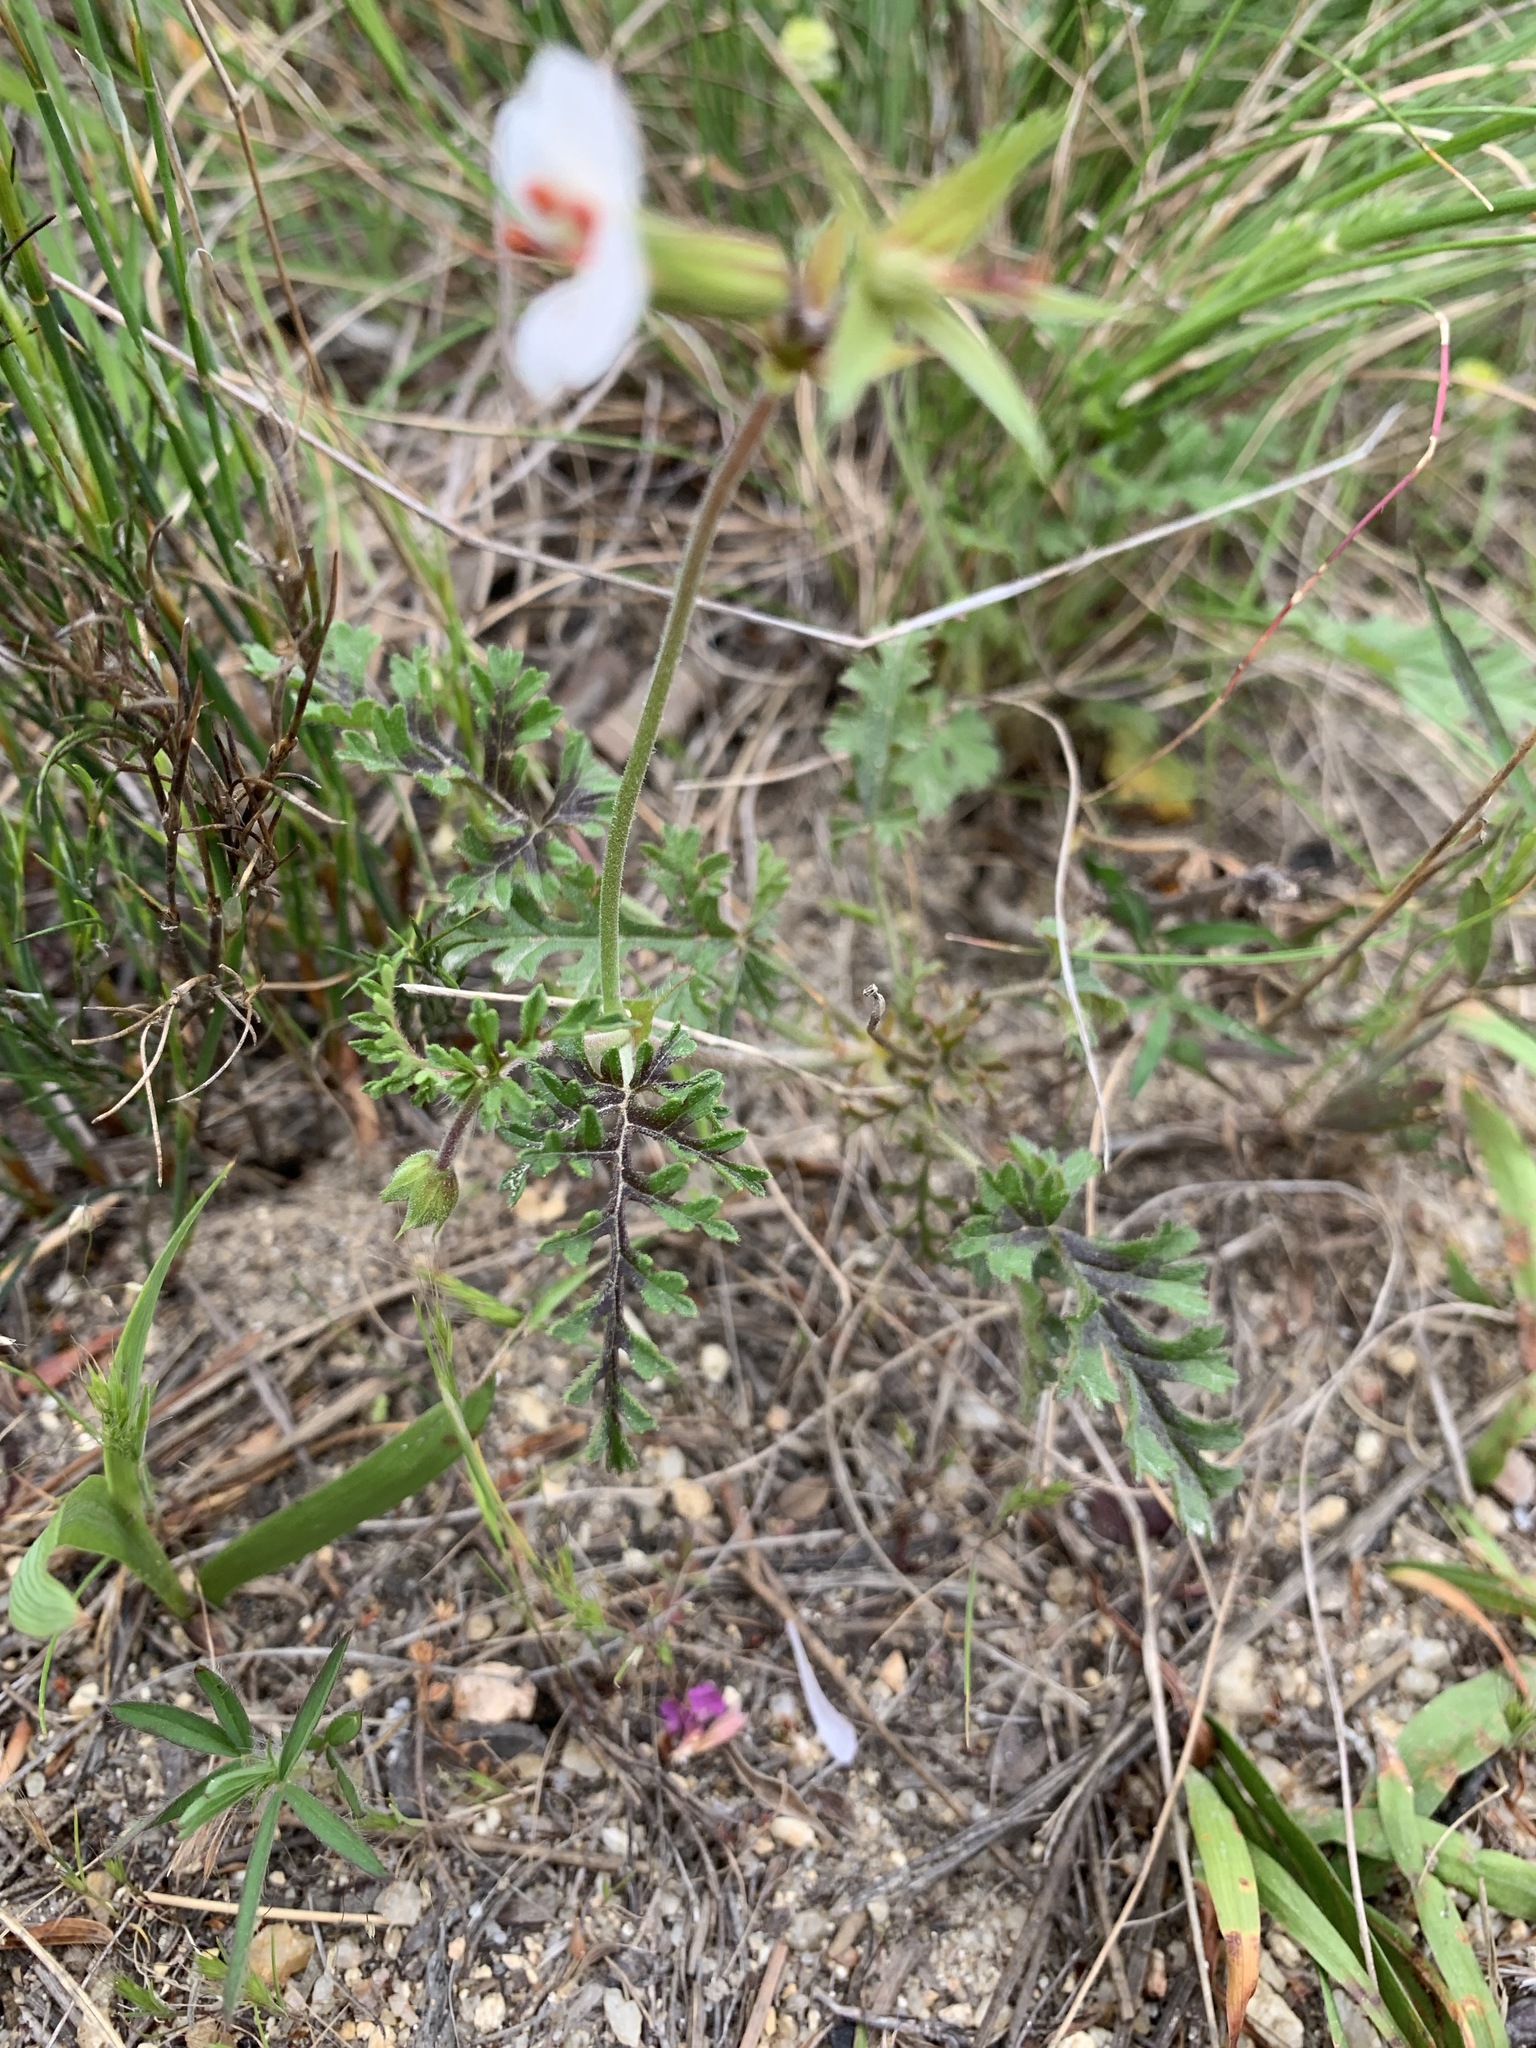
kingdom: Plantae
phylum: Tracheophyta
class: Magnoliopsida
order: Geraniales
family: Geraniaceae
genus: Pelargonium
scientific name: Pelargonium myrrhifolium
